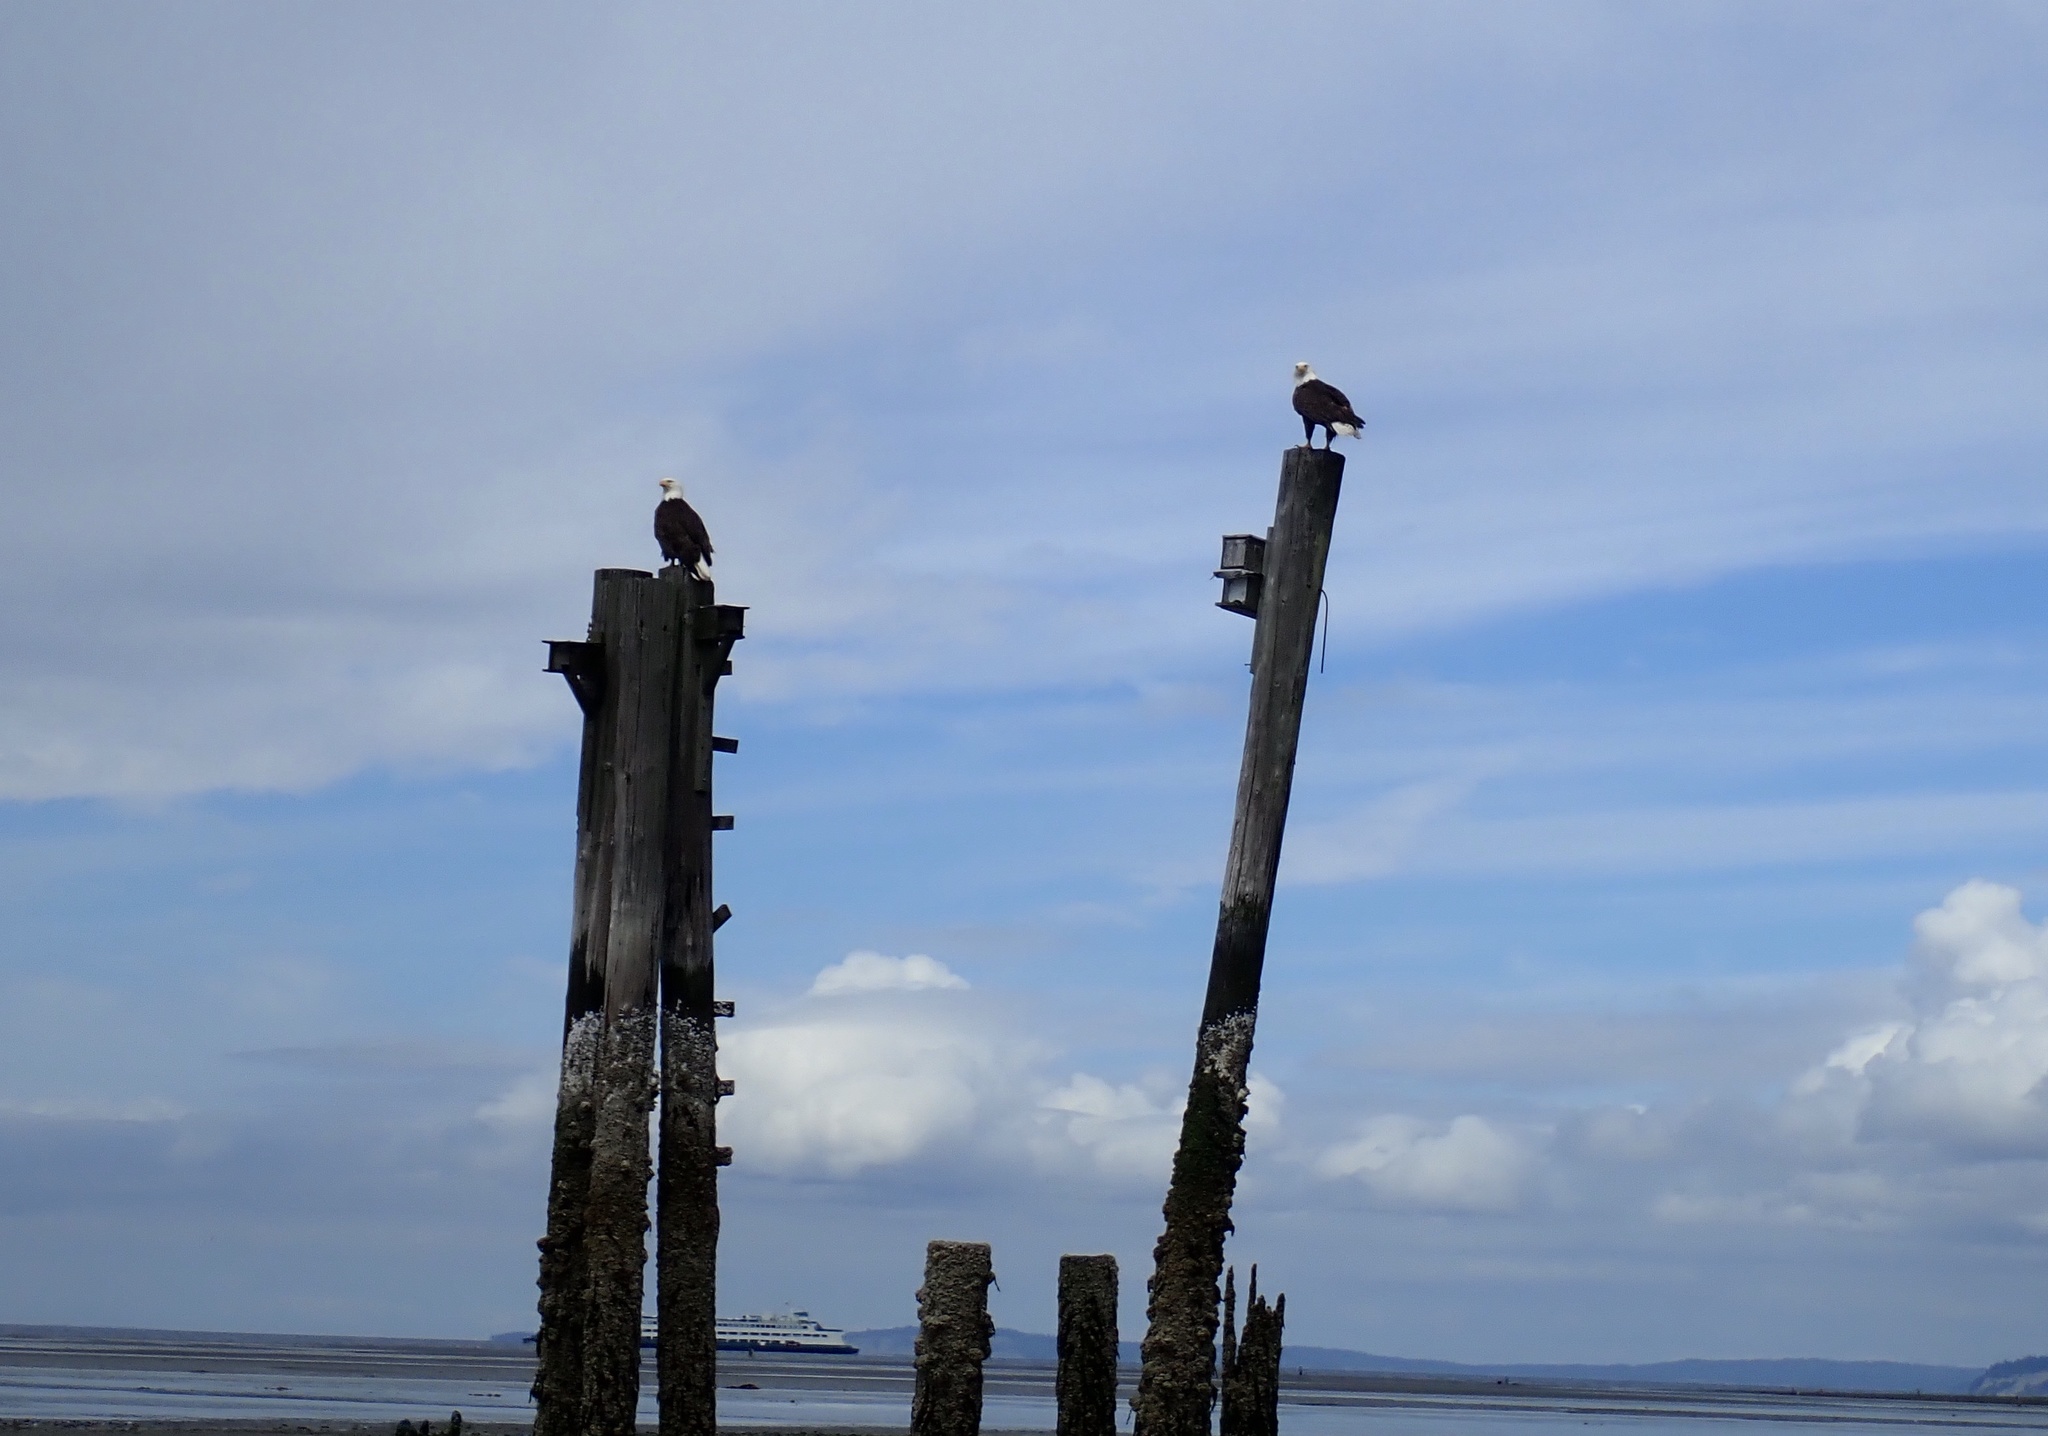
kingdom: Animalia
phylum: Chordata
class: Aves
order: Accipitriformes
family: Accipitridae
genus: Haliaeetus
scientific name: Haliaeetus leucocephalus
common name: Bald eagle
